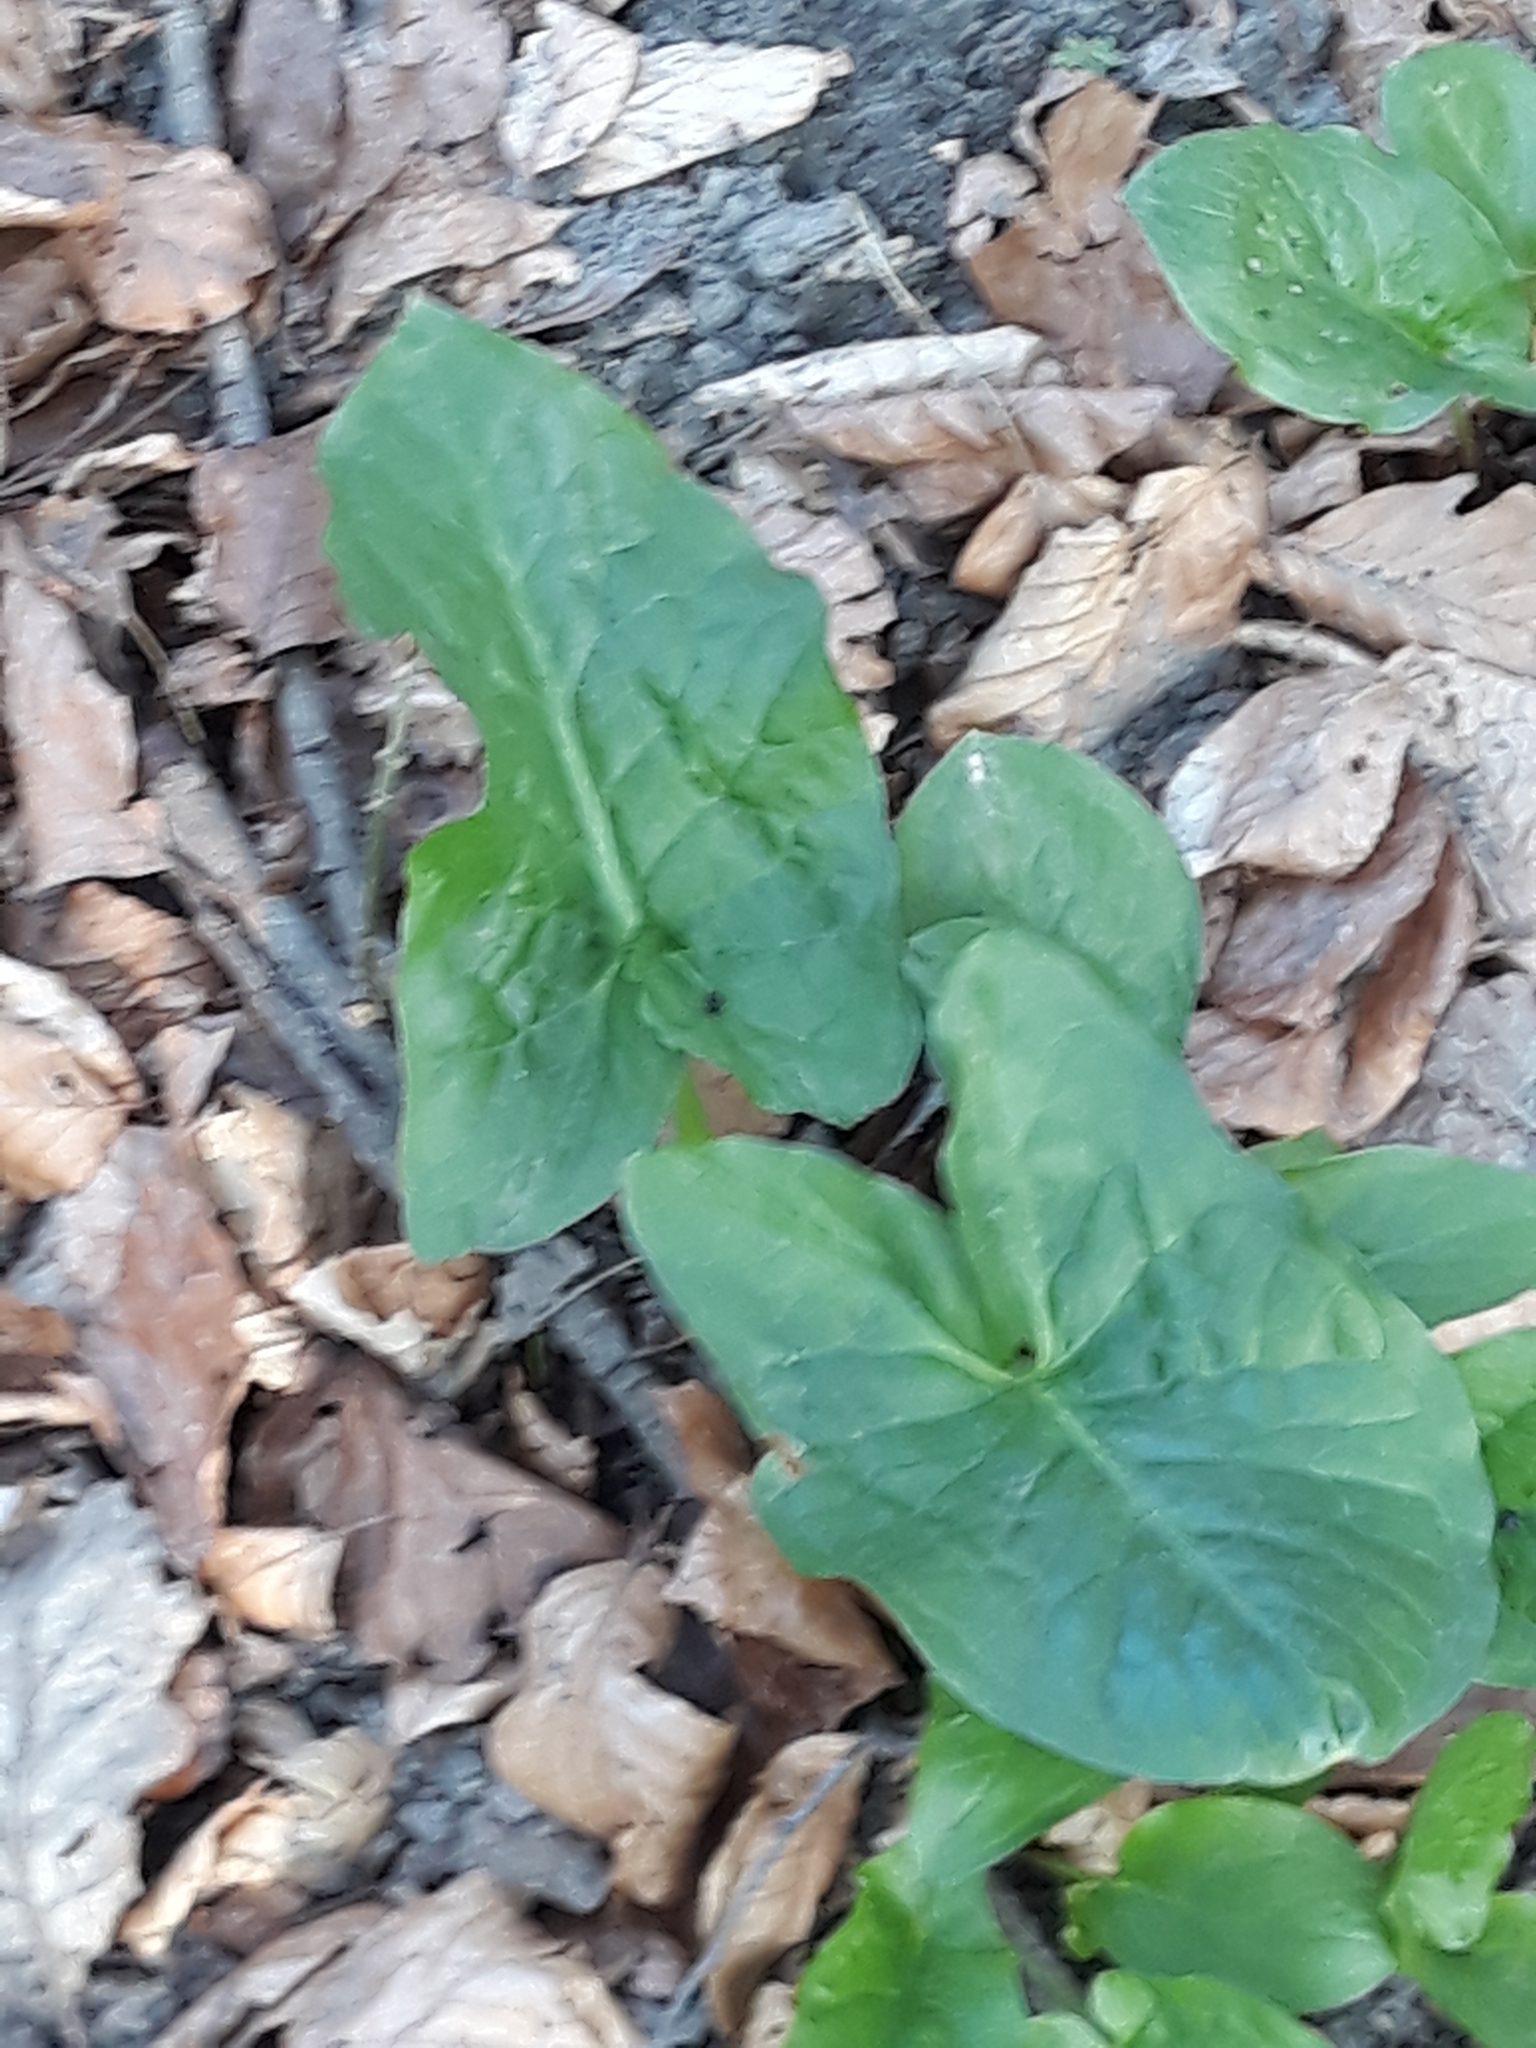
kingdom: Plantae
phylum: Tracheophyta
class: Liliopsida
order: Alismatales
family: Araceae
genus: Arum
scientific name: Arum maculatum
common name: Lords-and-ladies
